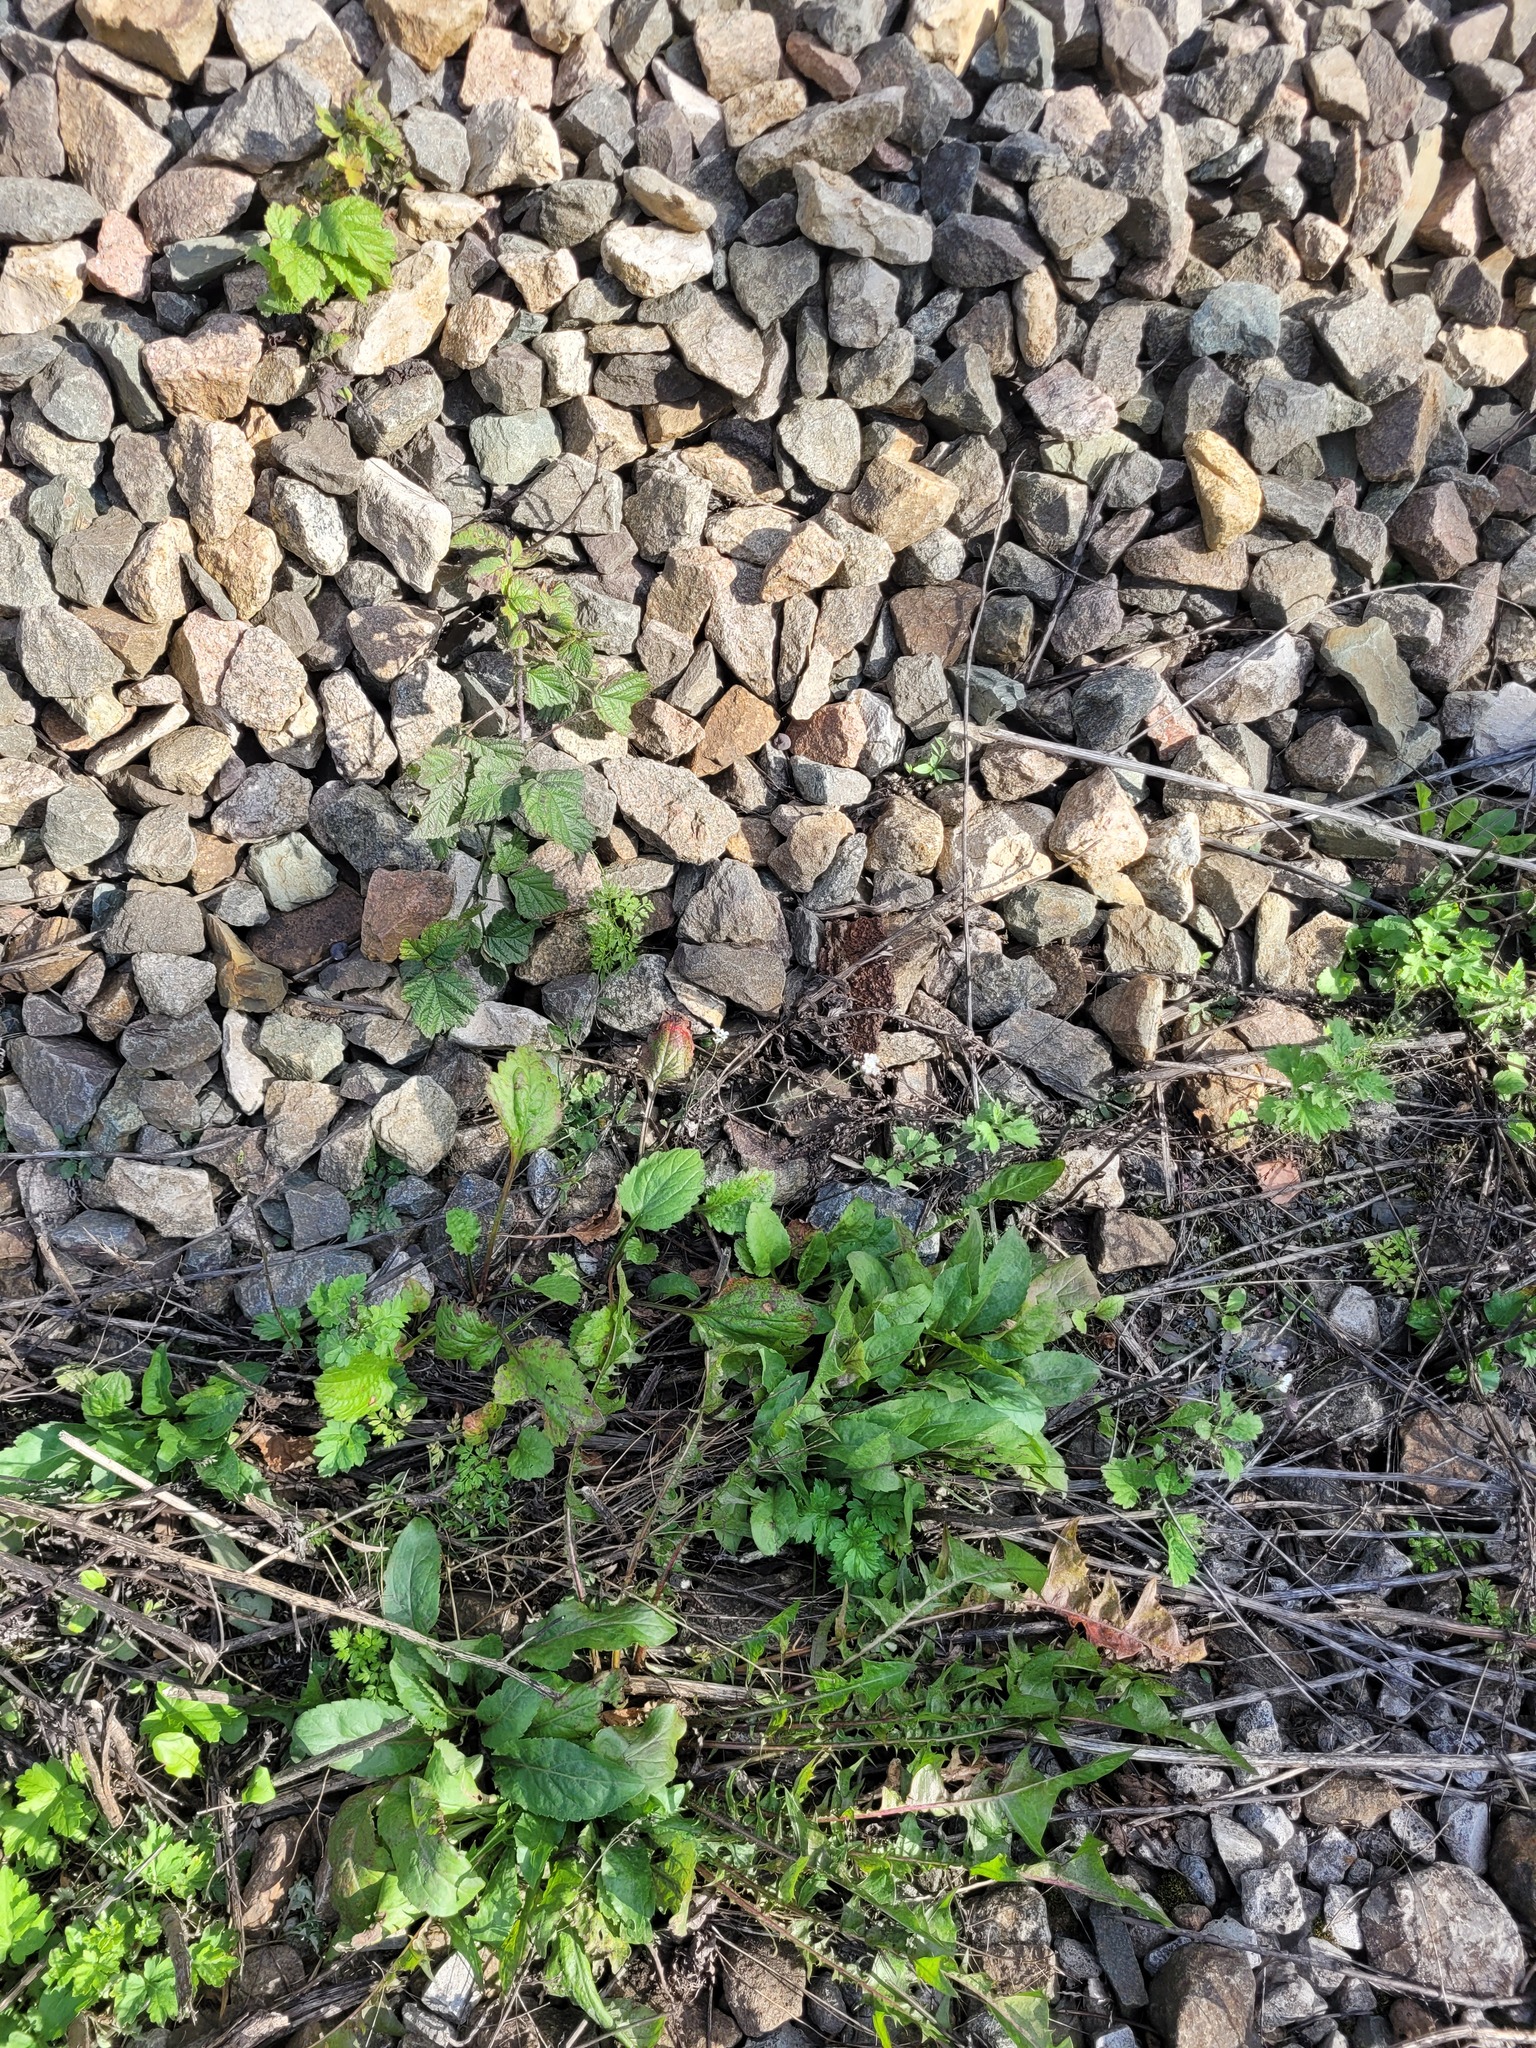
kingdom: Plantae
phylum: Tracheophyta
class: Magnoliopsida
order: Asterales
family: Asteraceae
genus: Solidago
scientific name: Solidago virgaurea
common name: Goldenrod
